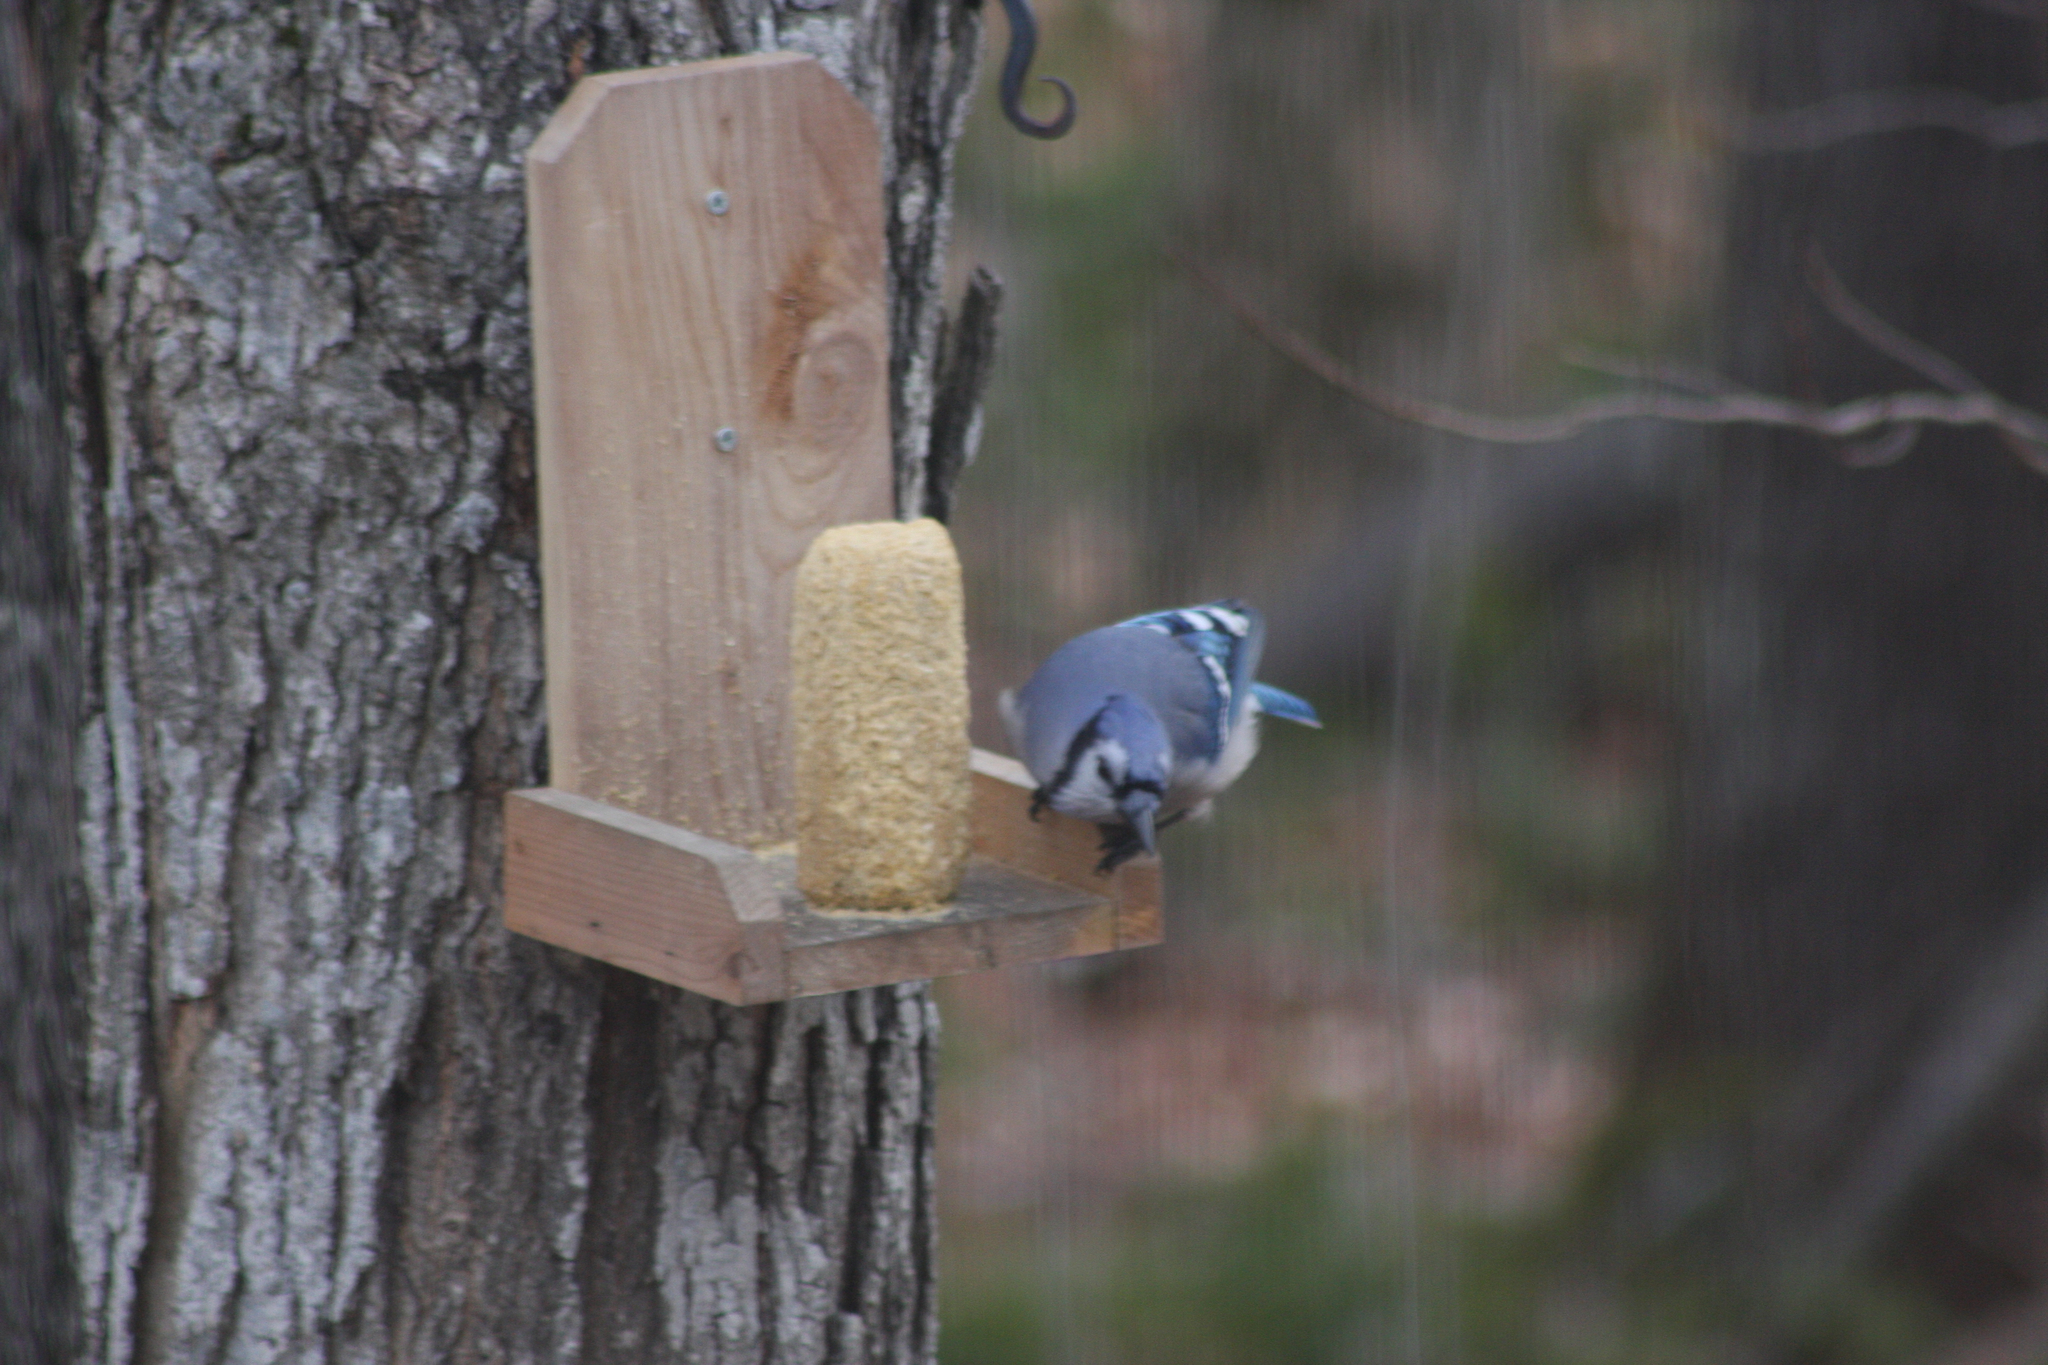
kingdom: Animalia
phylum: Chordata
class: Aves
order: Passeriformes
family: Corvidae
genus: Cyanocitta
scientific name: Cyanocitta cristata
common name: Blue jay
